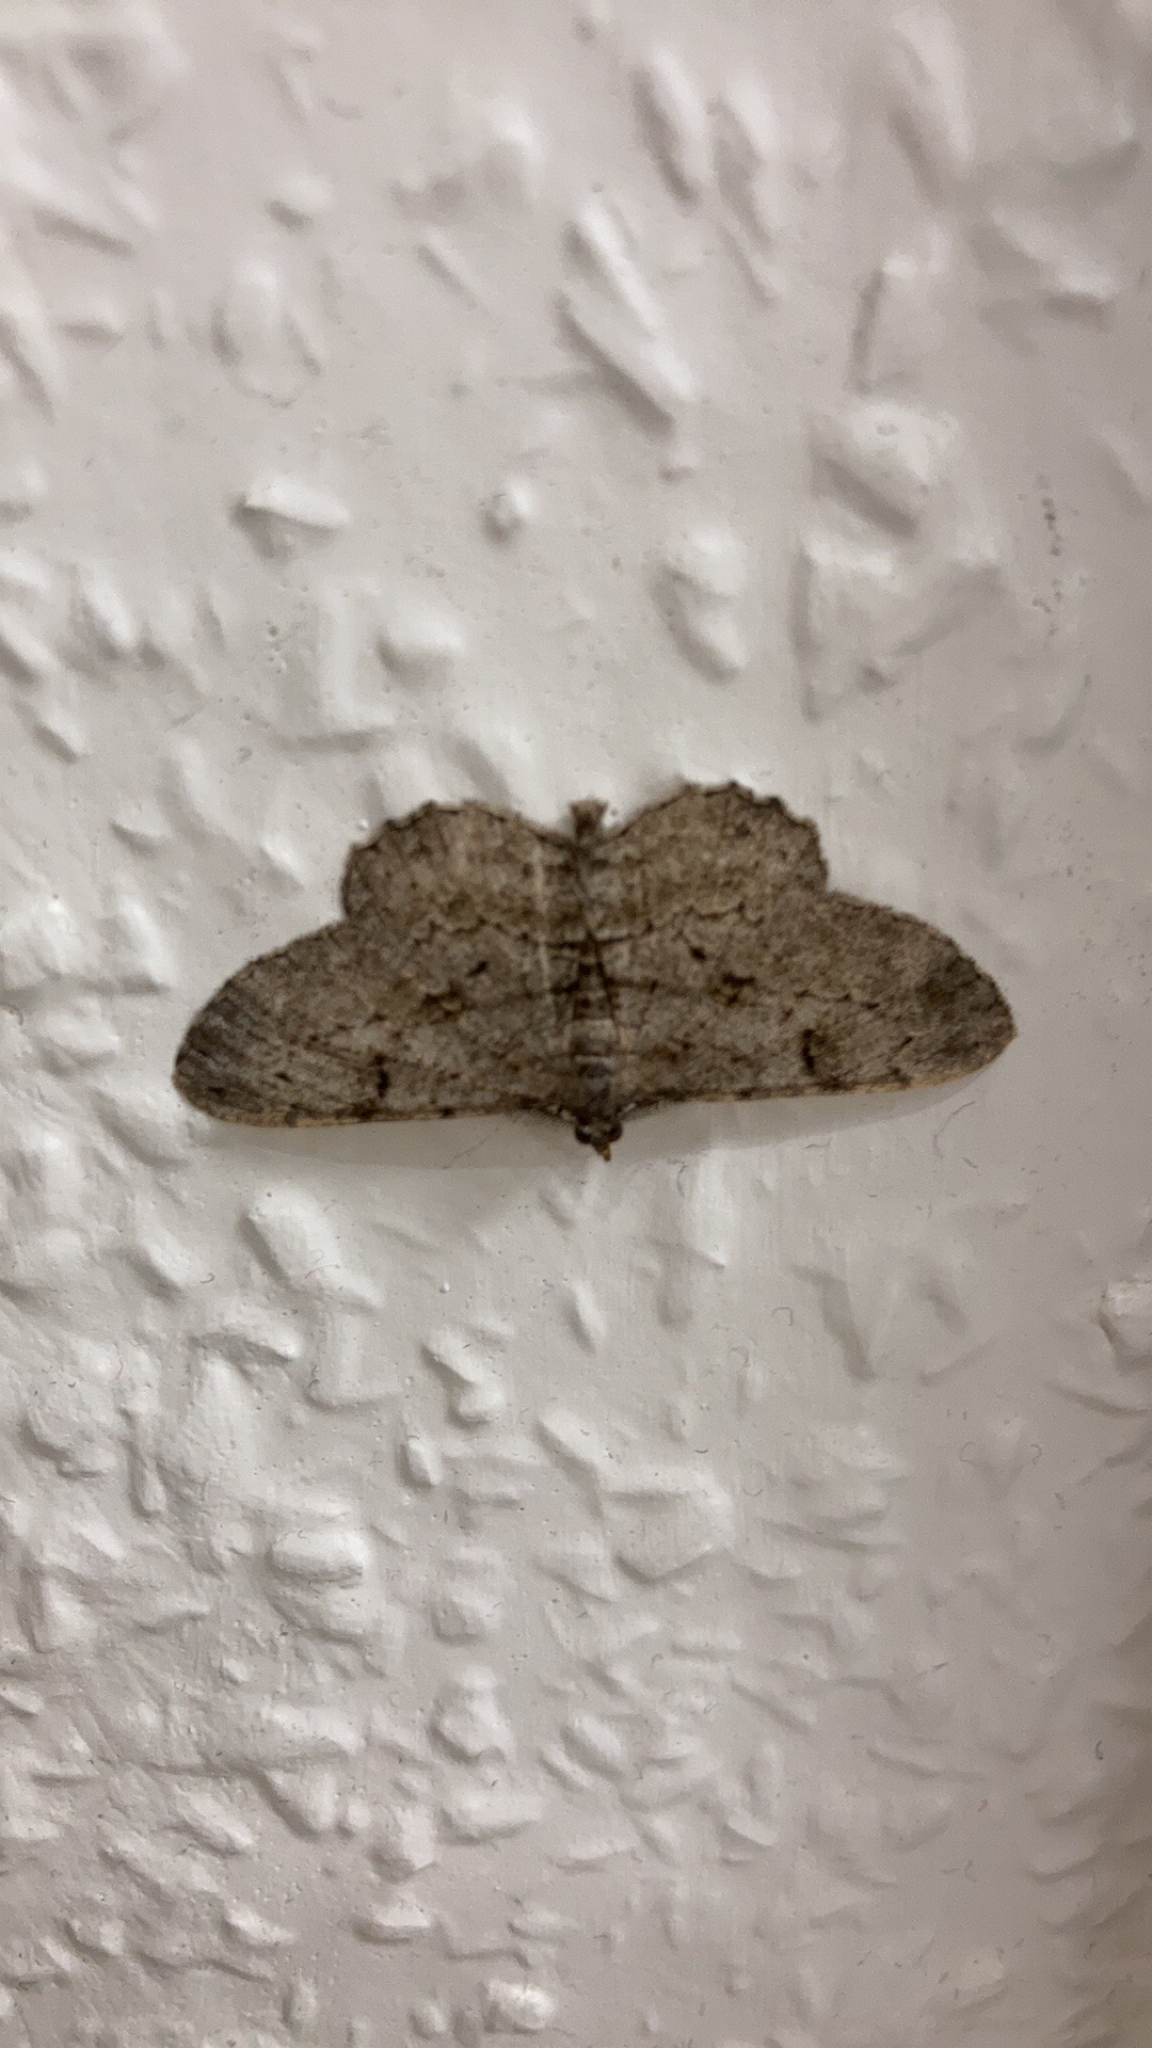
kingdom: Animalia
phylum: Arthropoda
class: Insecta
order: Lepidoptera
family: Geometridae
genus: Peribatodes
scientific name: Peribatodes rhomboidaria
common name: Willow beauty
